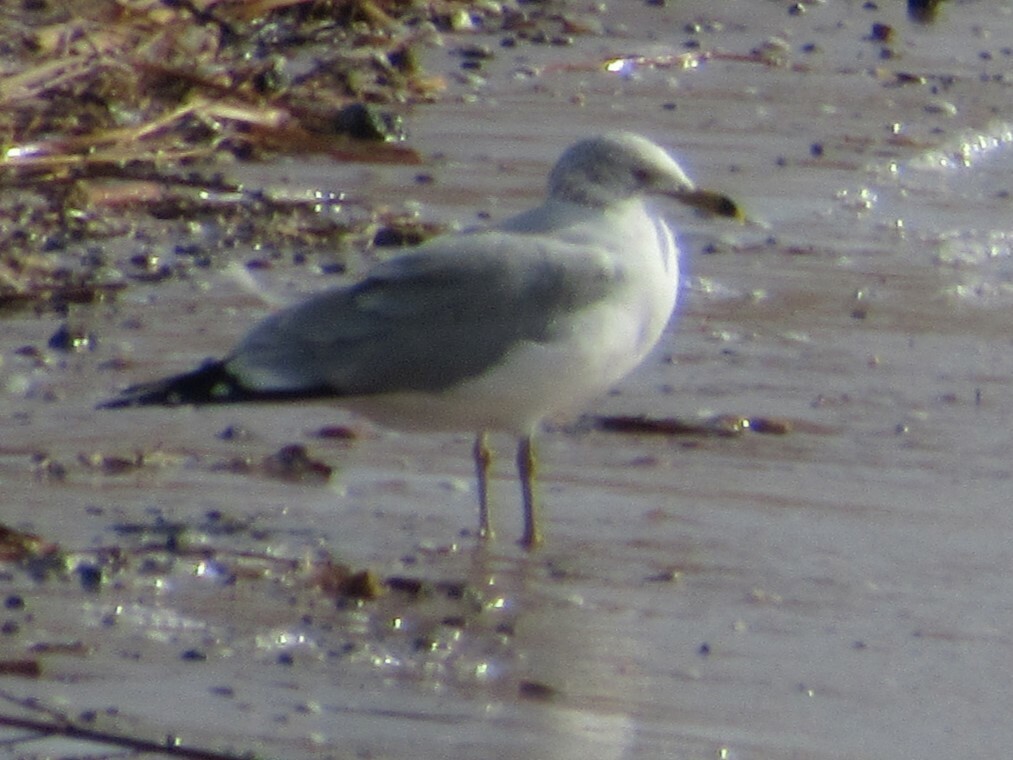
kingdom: Animalia
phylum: Chordata
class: Aves
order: Charadriiformes
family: Laridae
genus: Larus
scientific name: Larus delawarensis
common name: Ring-billed gull
